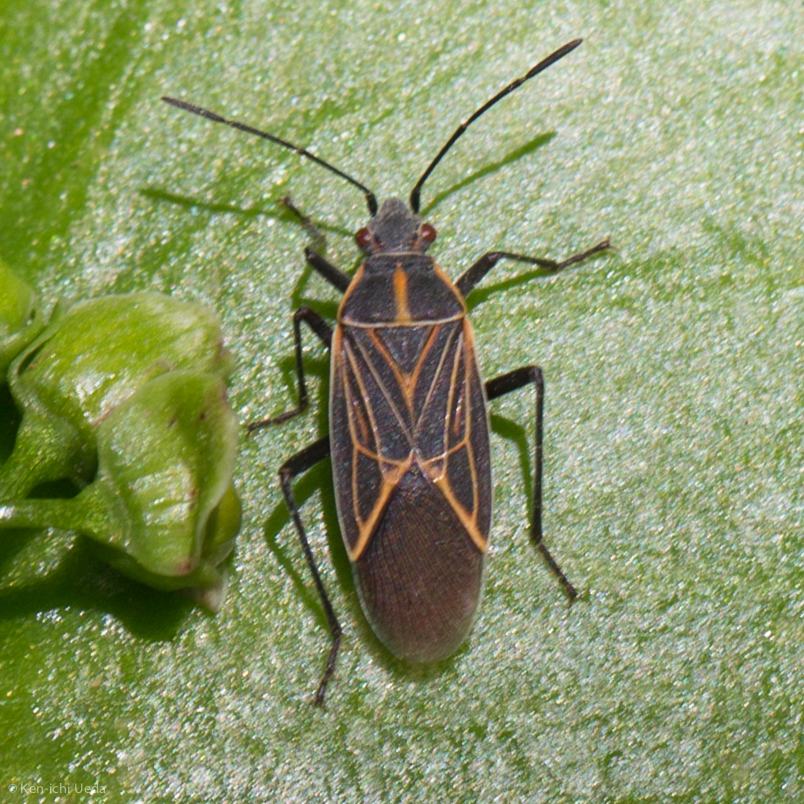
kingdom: Animalia
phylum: Arthropoda
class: Insecta
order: Hemiptera
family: Rhopalidae
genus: Boisea
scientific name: Boisea rubrolineata
